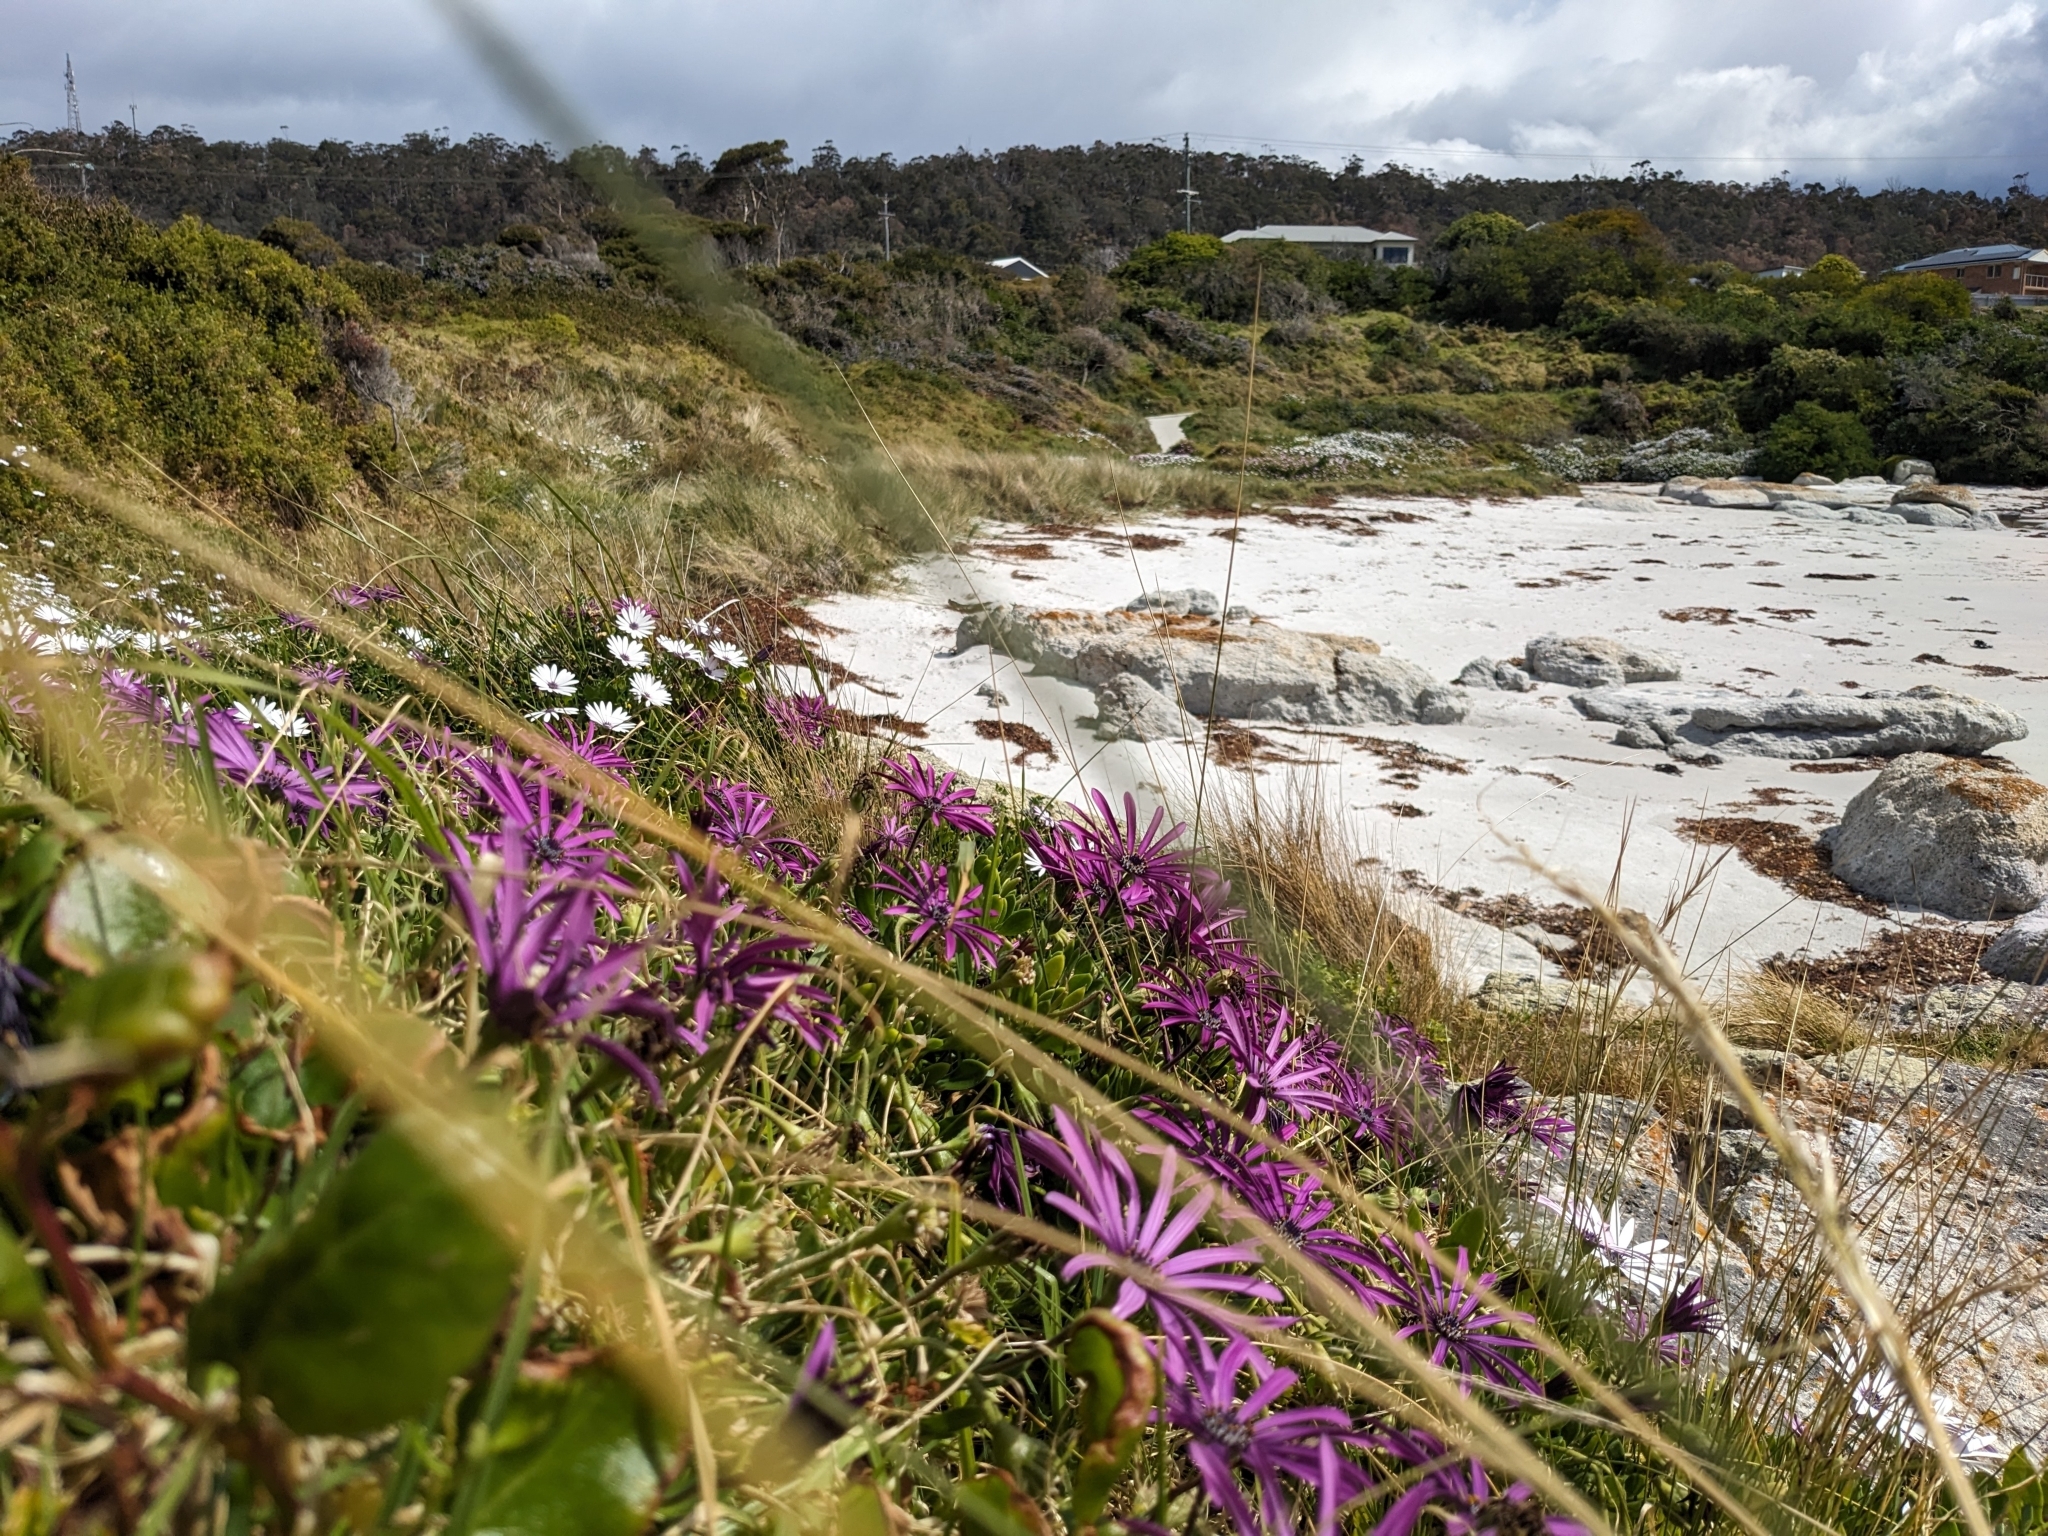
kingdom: Plantae
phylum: Tracheophyta
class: Magnoliopsida
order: Asterales
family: Asteraceae
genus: Dimorphotheca
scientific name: Dimorphotheca fruticosa
